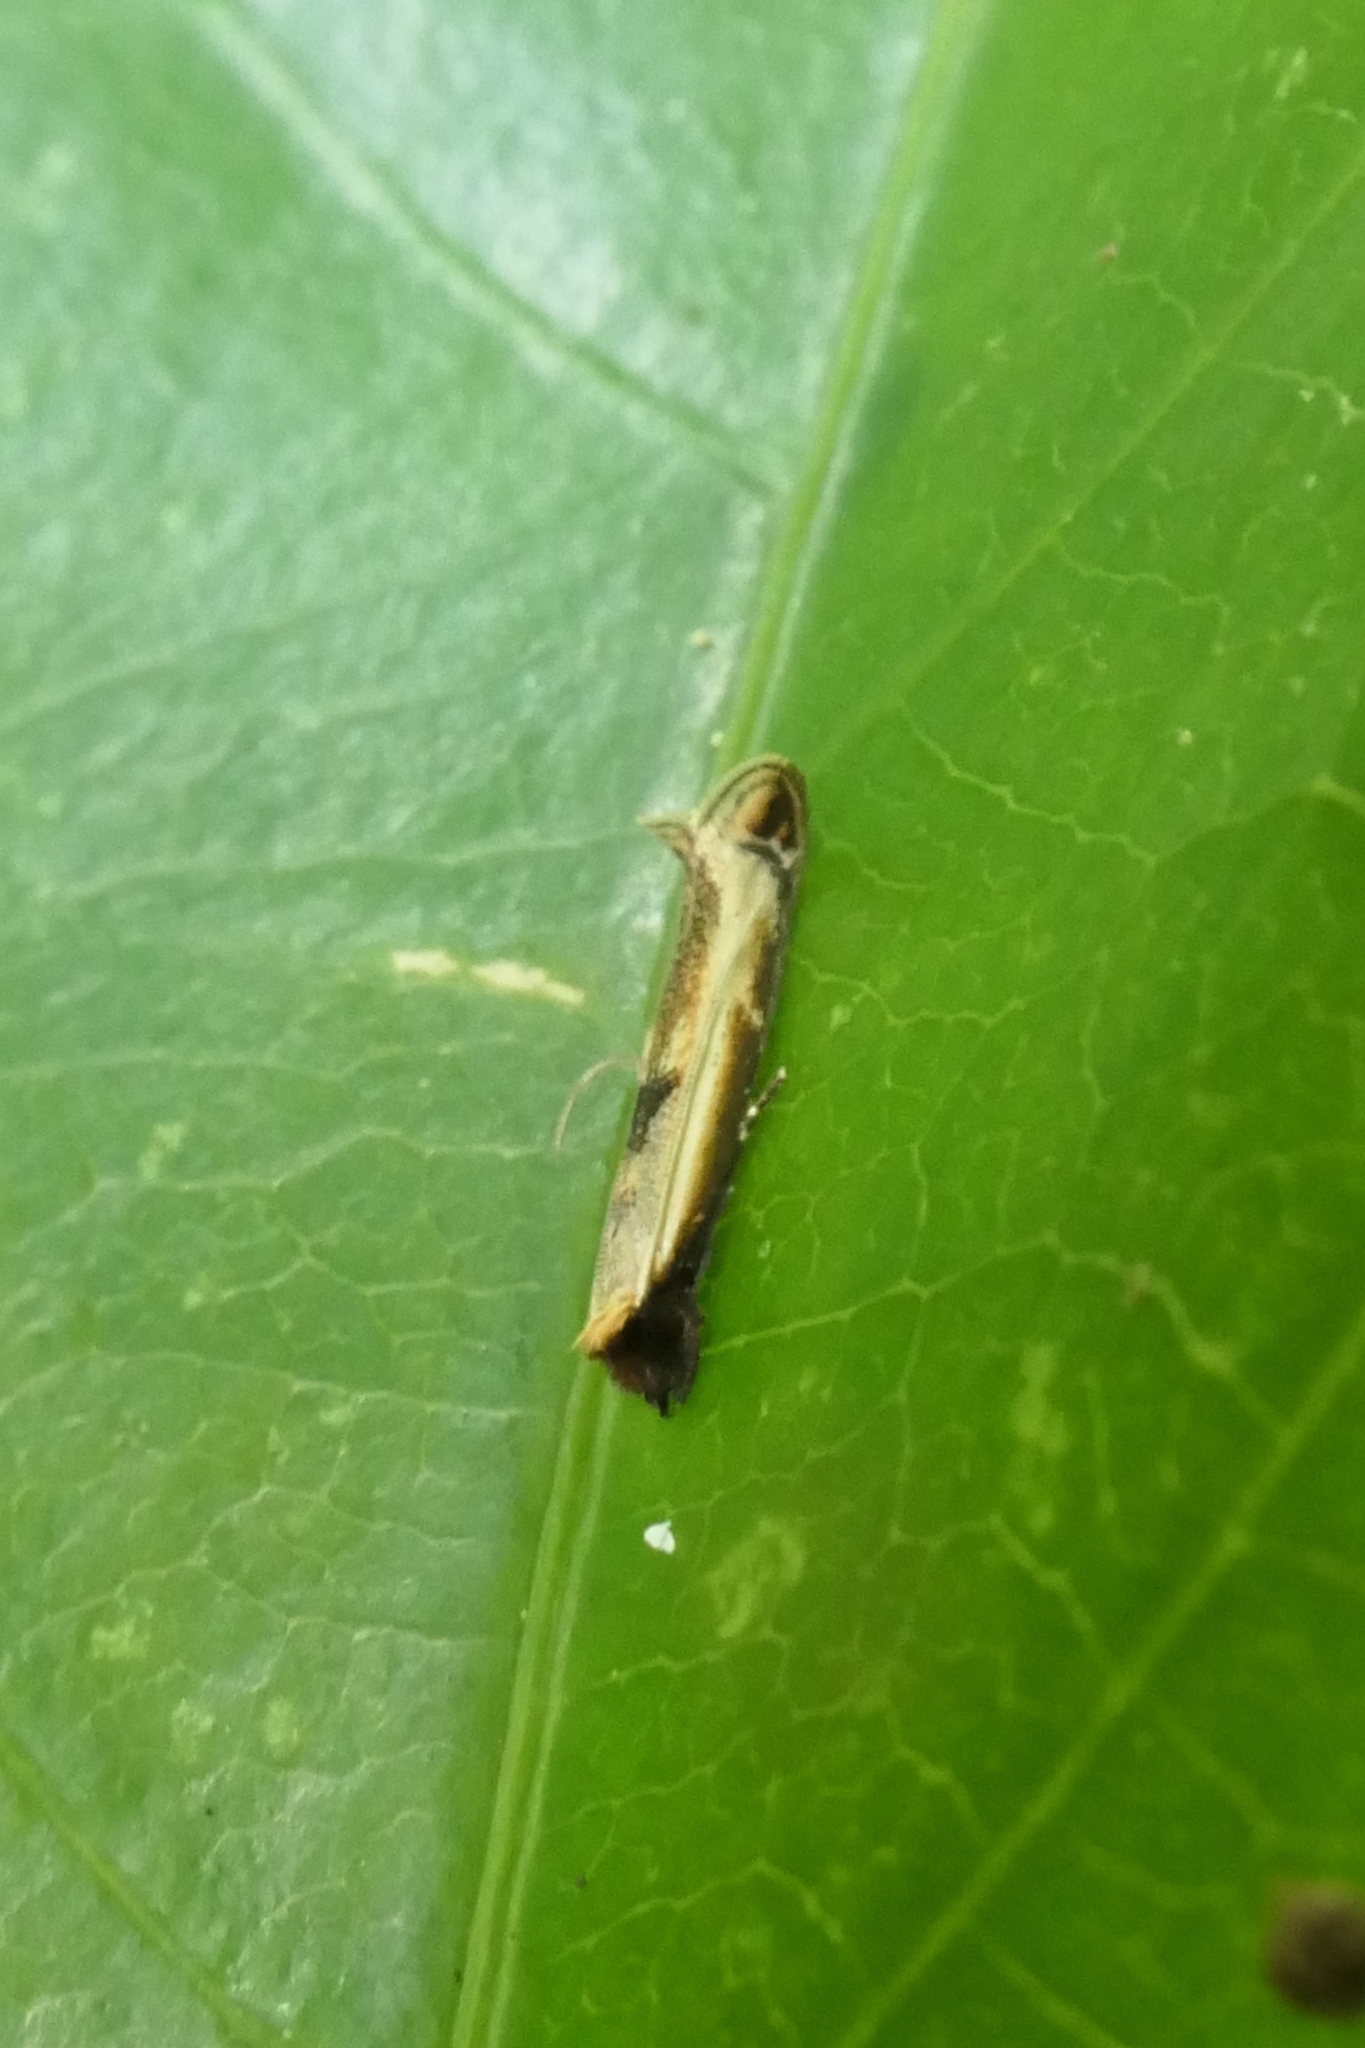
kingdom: Animalia
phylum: Arthropoda
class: Insecta
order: Lepidoptera
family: Tineidae
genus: Erechthias
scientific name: Erechthias charadrota
